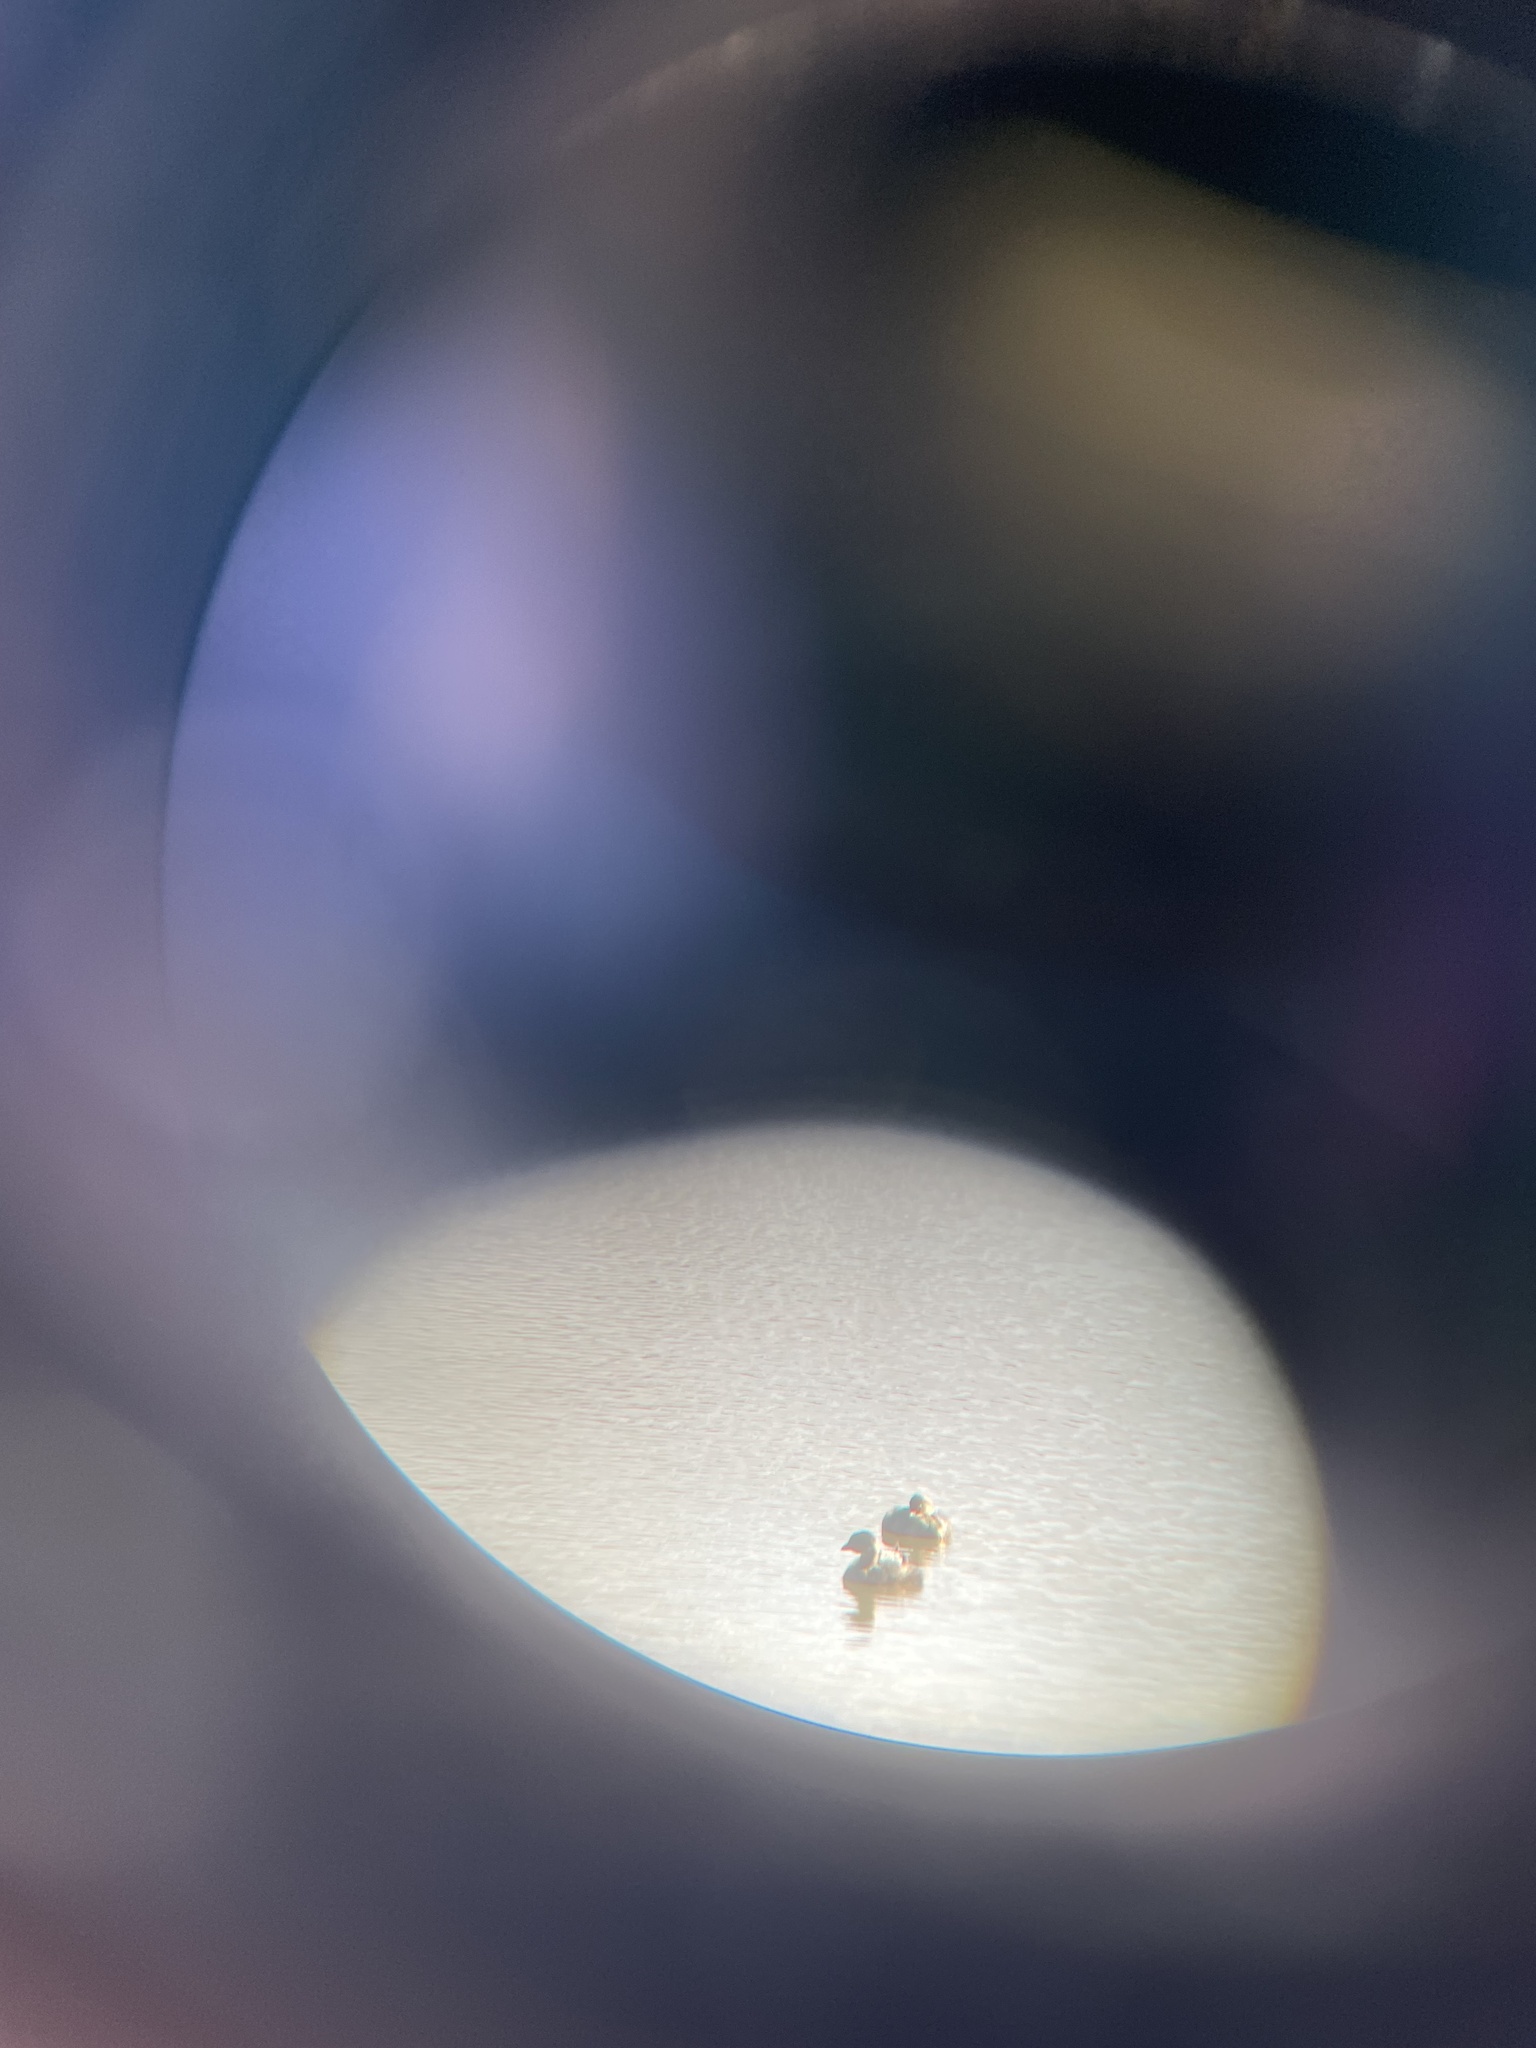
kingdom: Animalia
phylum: Chordata
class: Aves
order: Podicipediformes
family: Podicipedidae
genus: Podilymbus
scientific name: Podilymbus podiceps
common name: Pied-billed grebe
